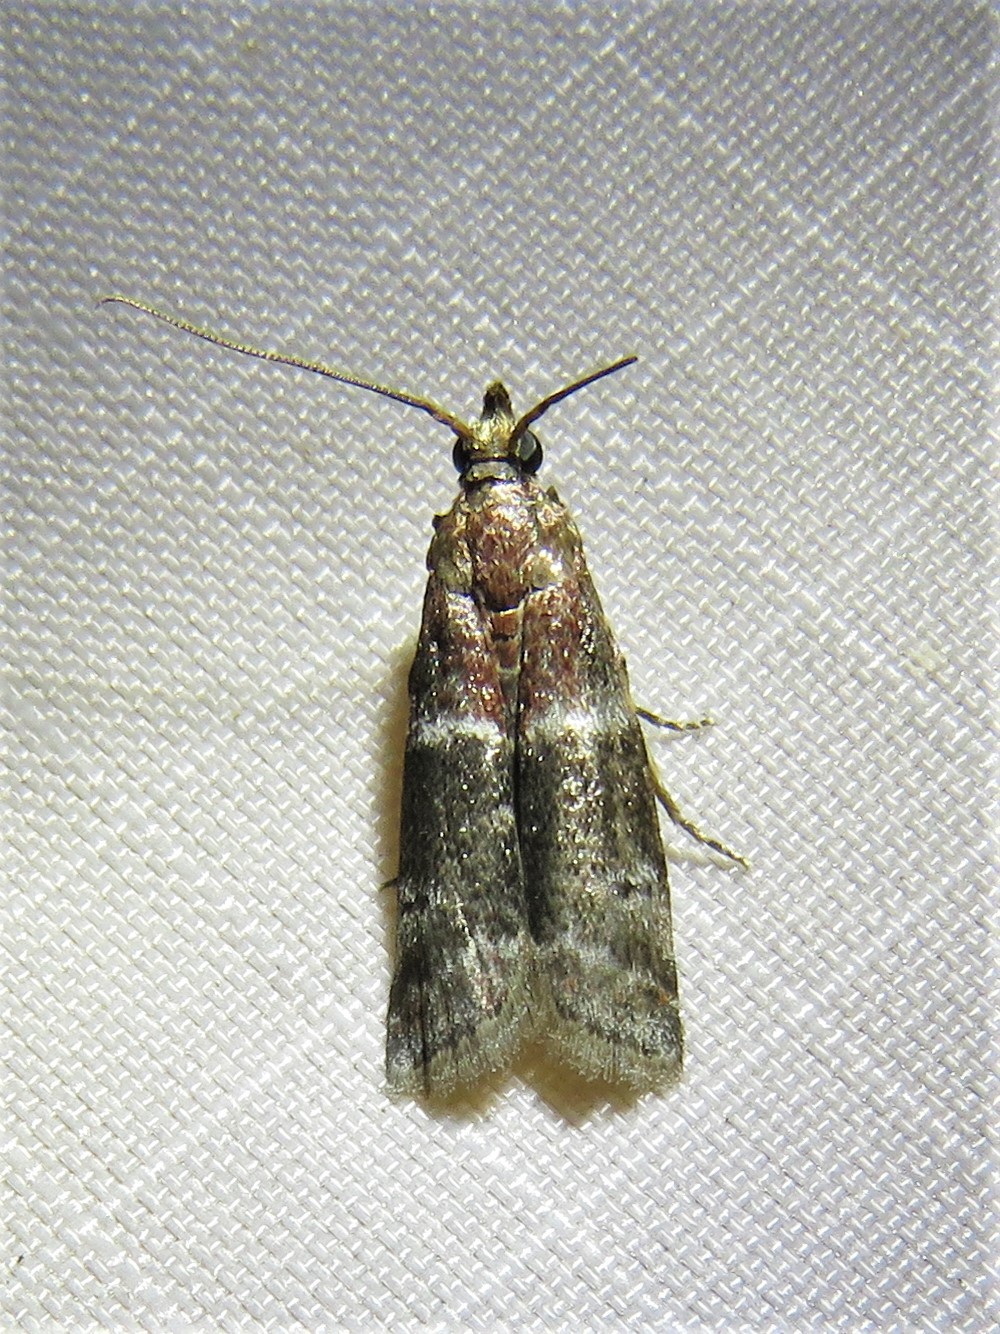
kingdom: Animalia
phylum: Arthropoda
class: Insecta
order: Lepidoptera
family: Pyralidae
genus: Moodna
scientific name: Moodna ostrinella
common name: Darker moodna moth
